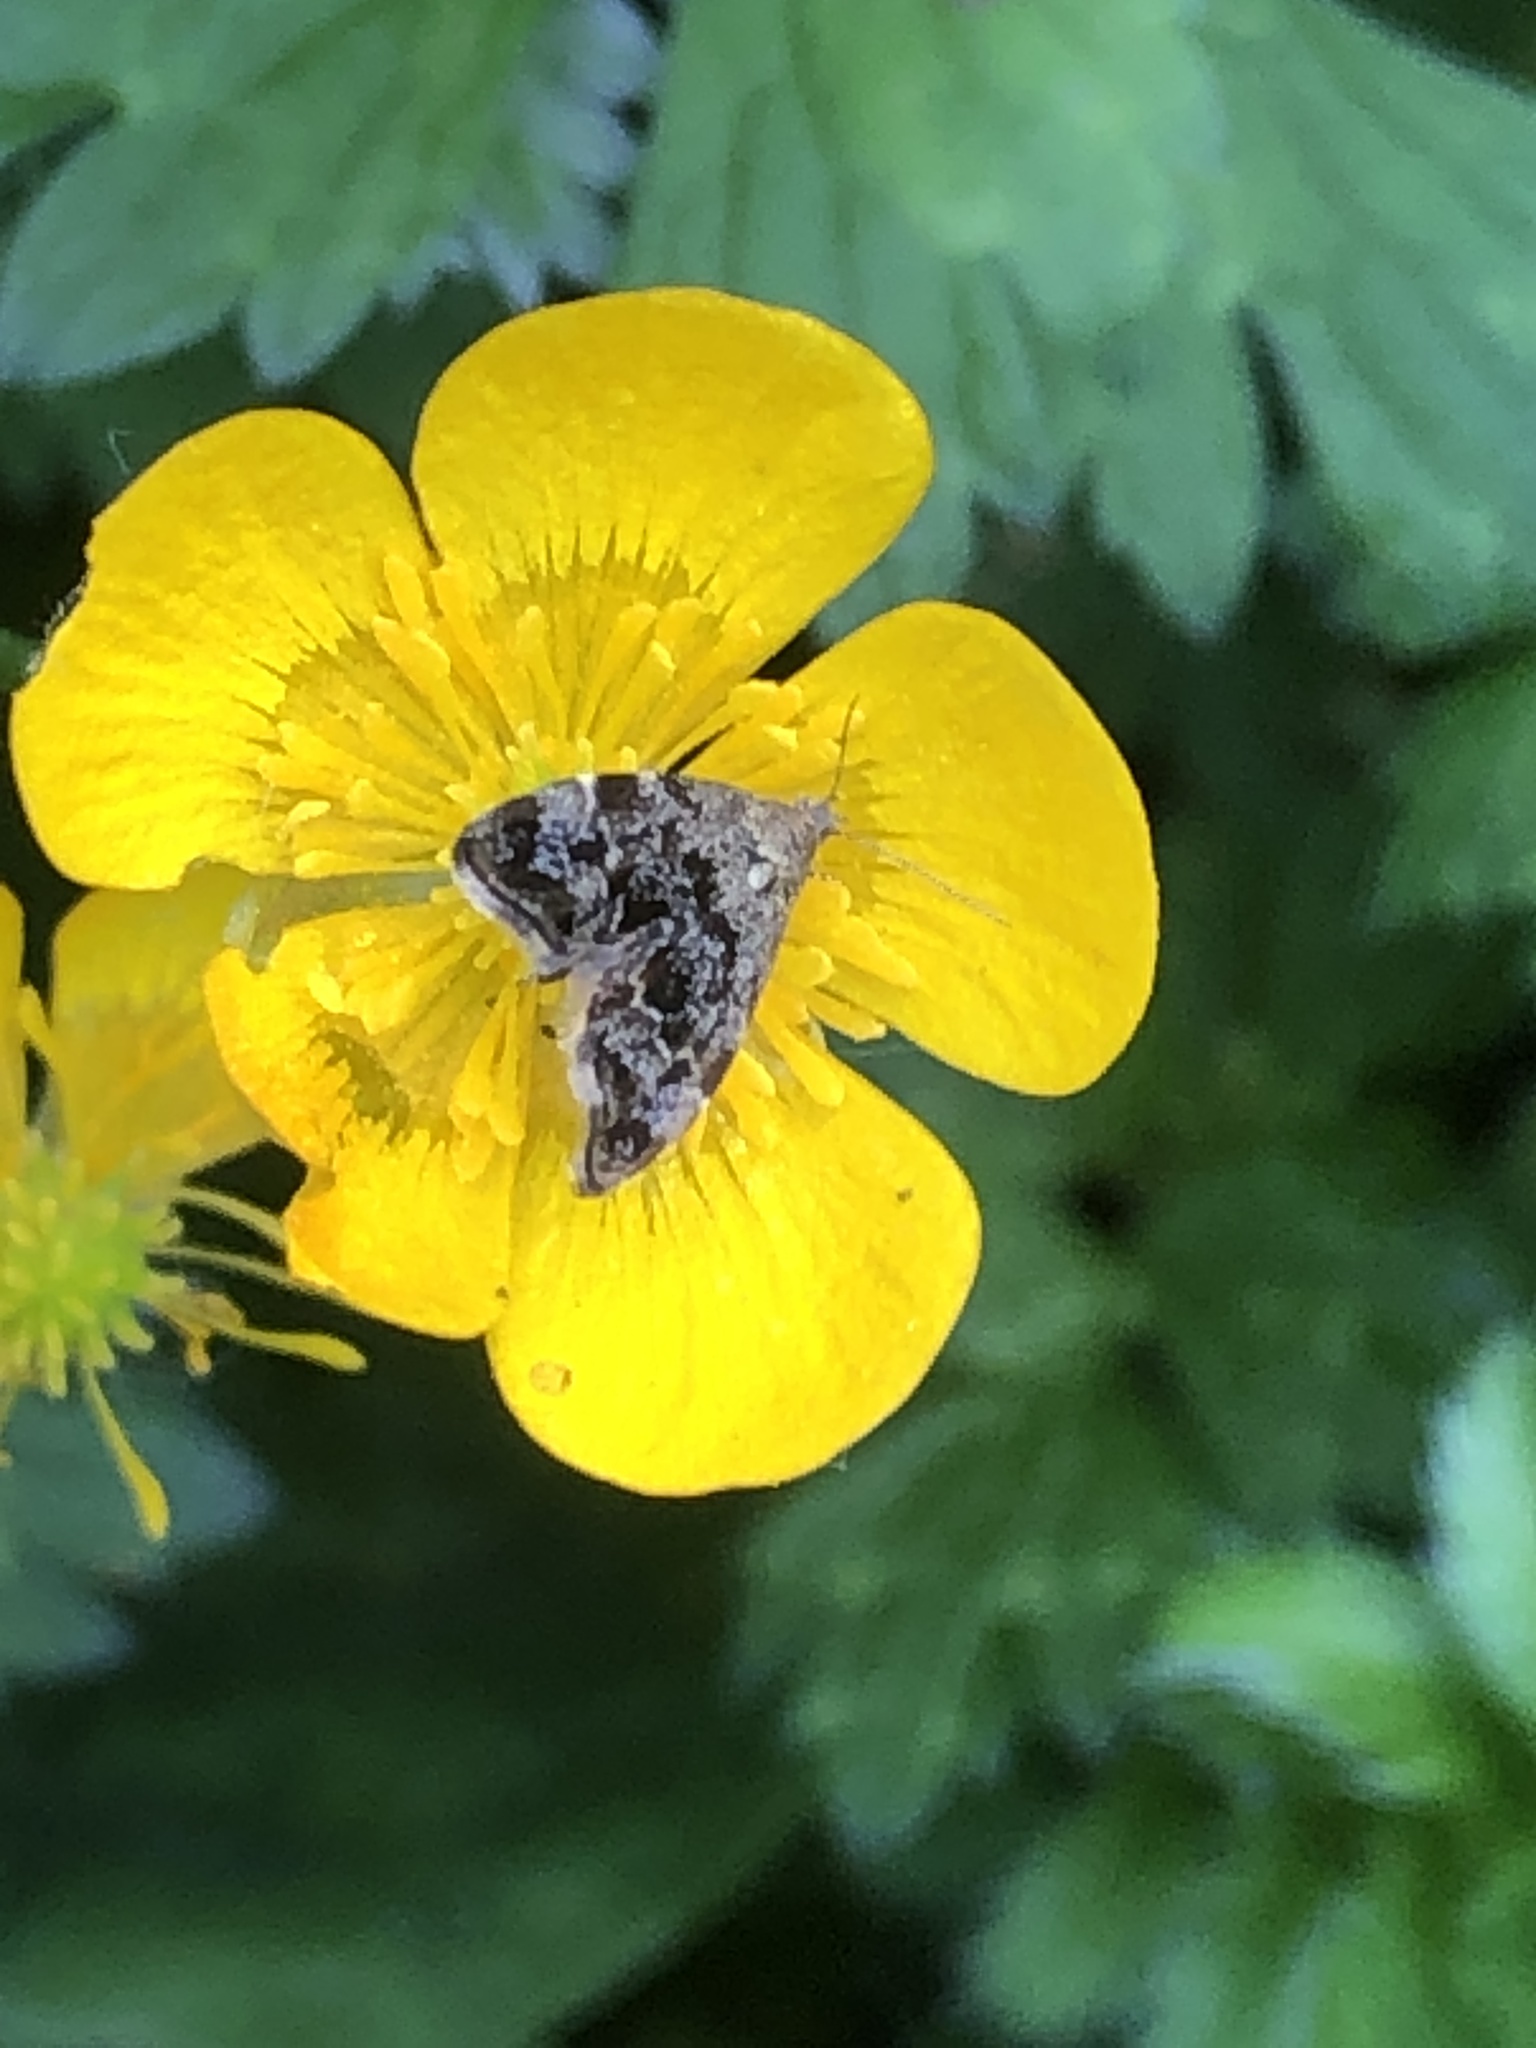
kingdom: Animalia
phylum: Arthropoda
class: Insecta
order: Lepidoptera
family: Choreutidae
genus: Anthophila
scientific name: Anthophila fabriciana
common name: Nettle-tap
